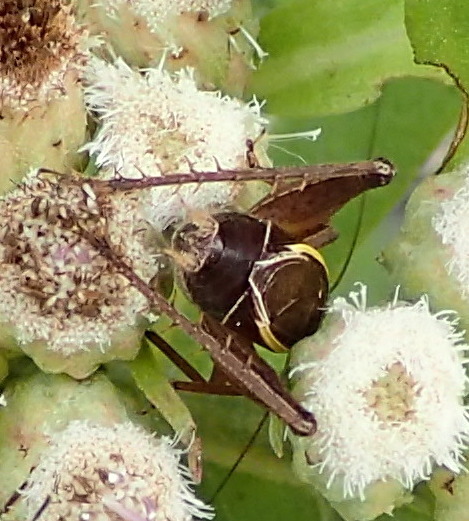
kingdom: Animalia
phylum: Arthropoda
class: Insecta
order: Orthoptera
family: Gryllidae
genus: Hapithus
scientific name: Hapithus agitator
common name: Restless bush cricket
